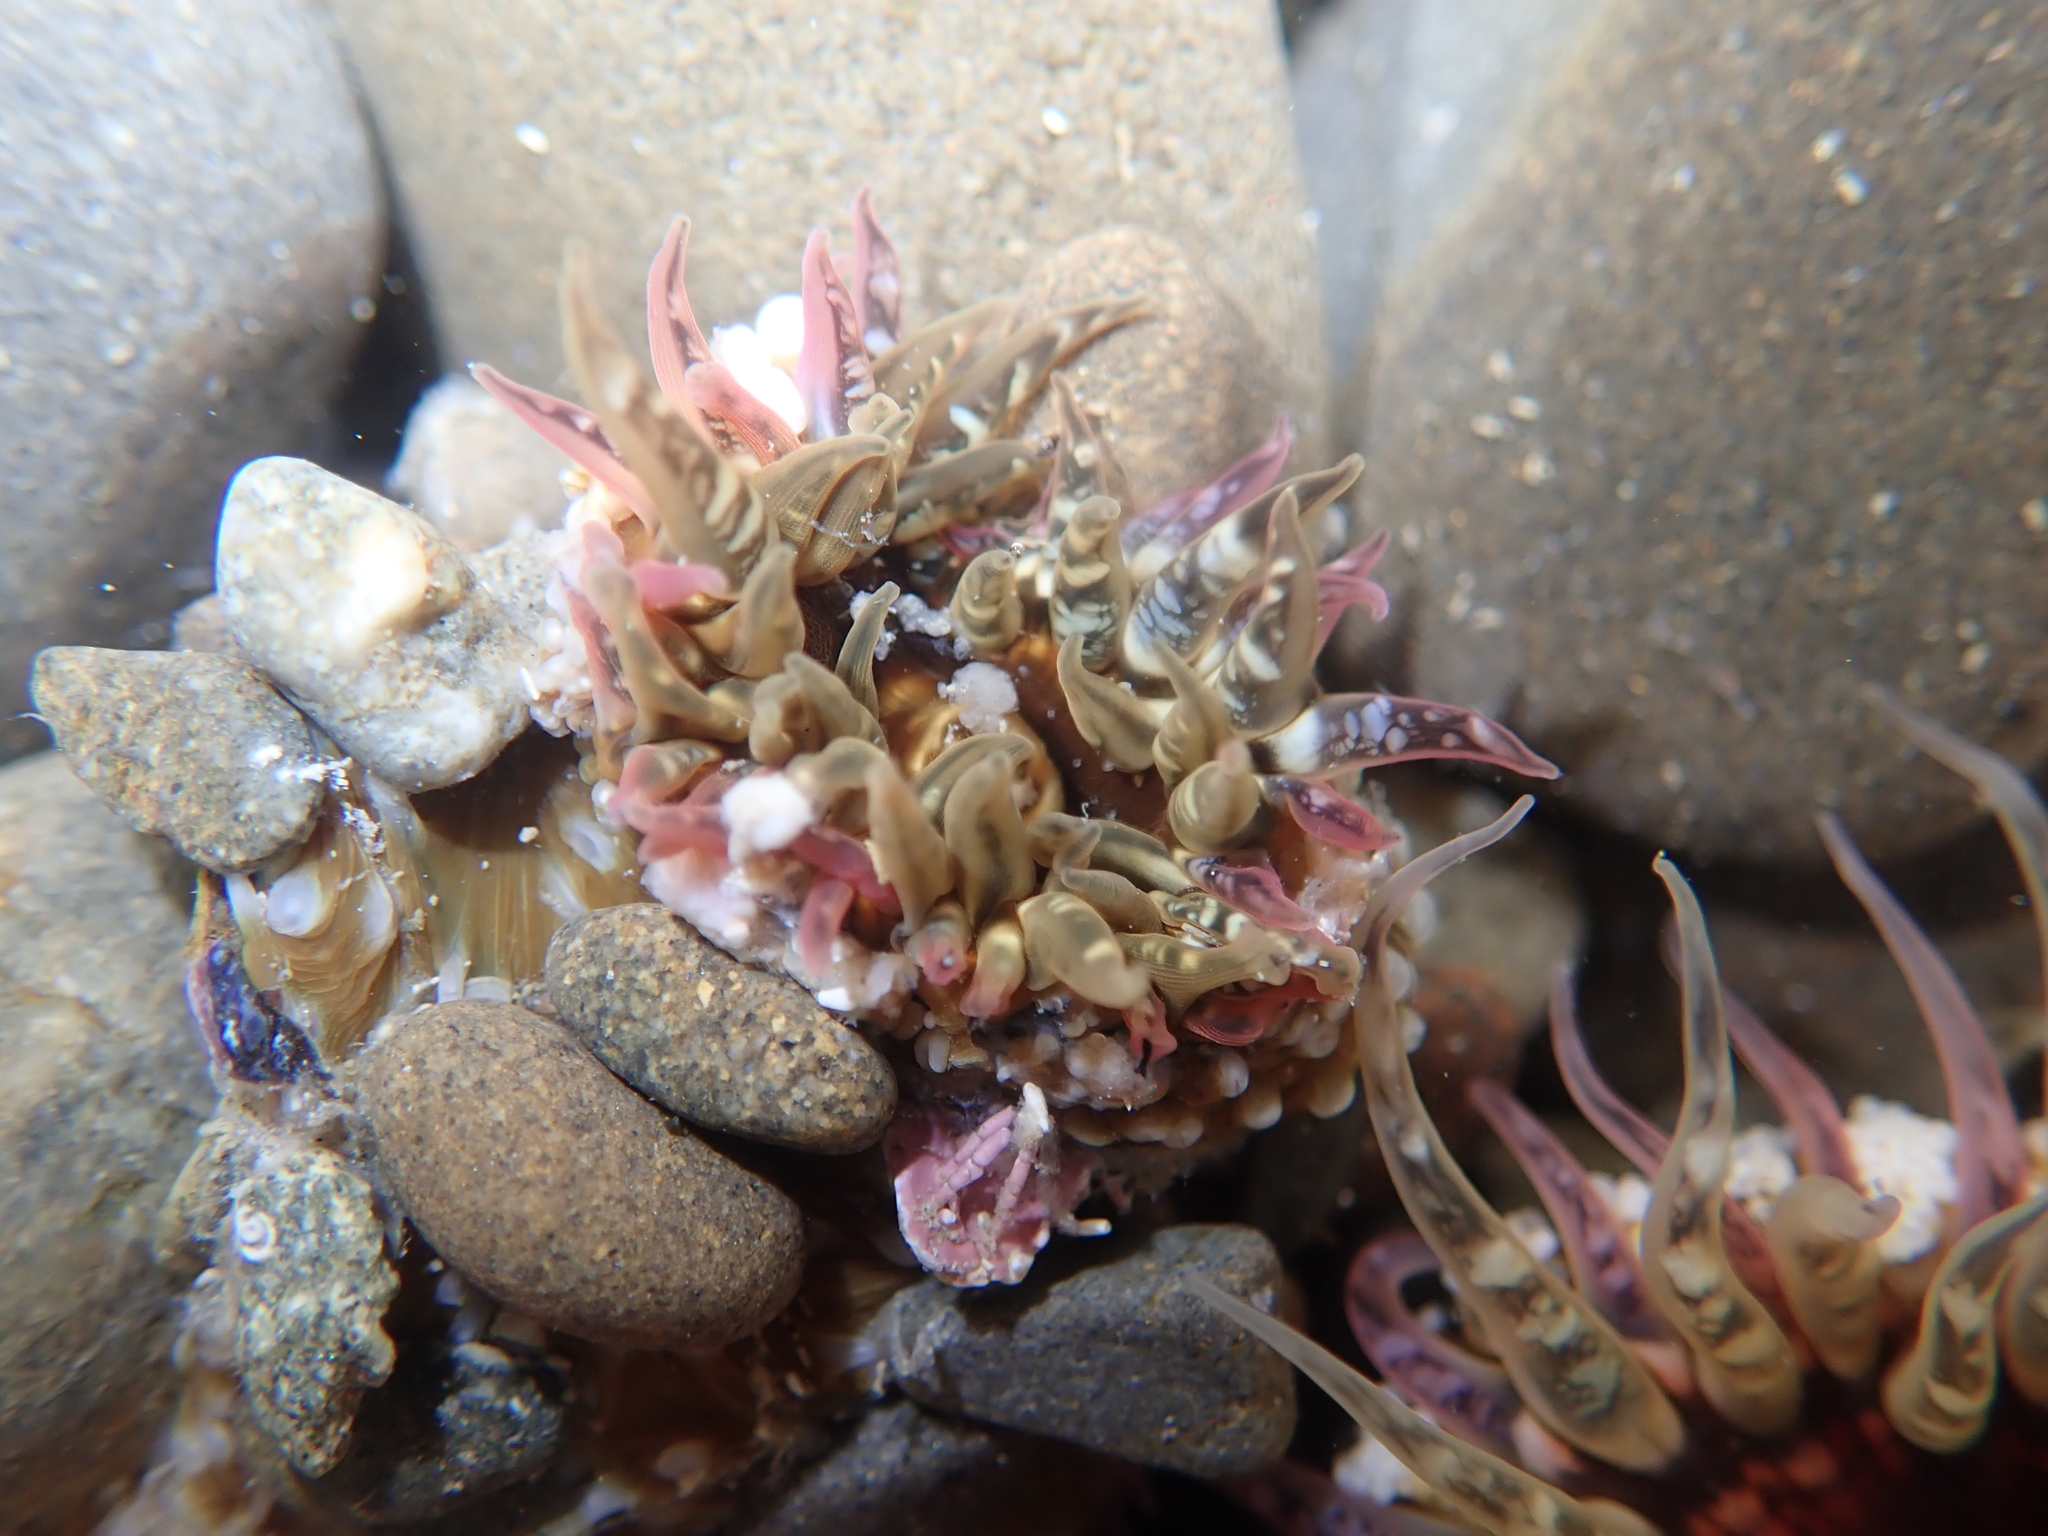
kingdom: Animalia
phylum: Cnidaria
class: Anthozoa
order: Actiniaria
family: Actiniidae
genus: Oulactis
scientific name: Oulactis muscosa
